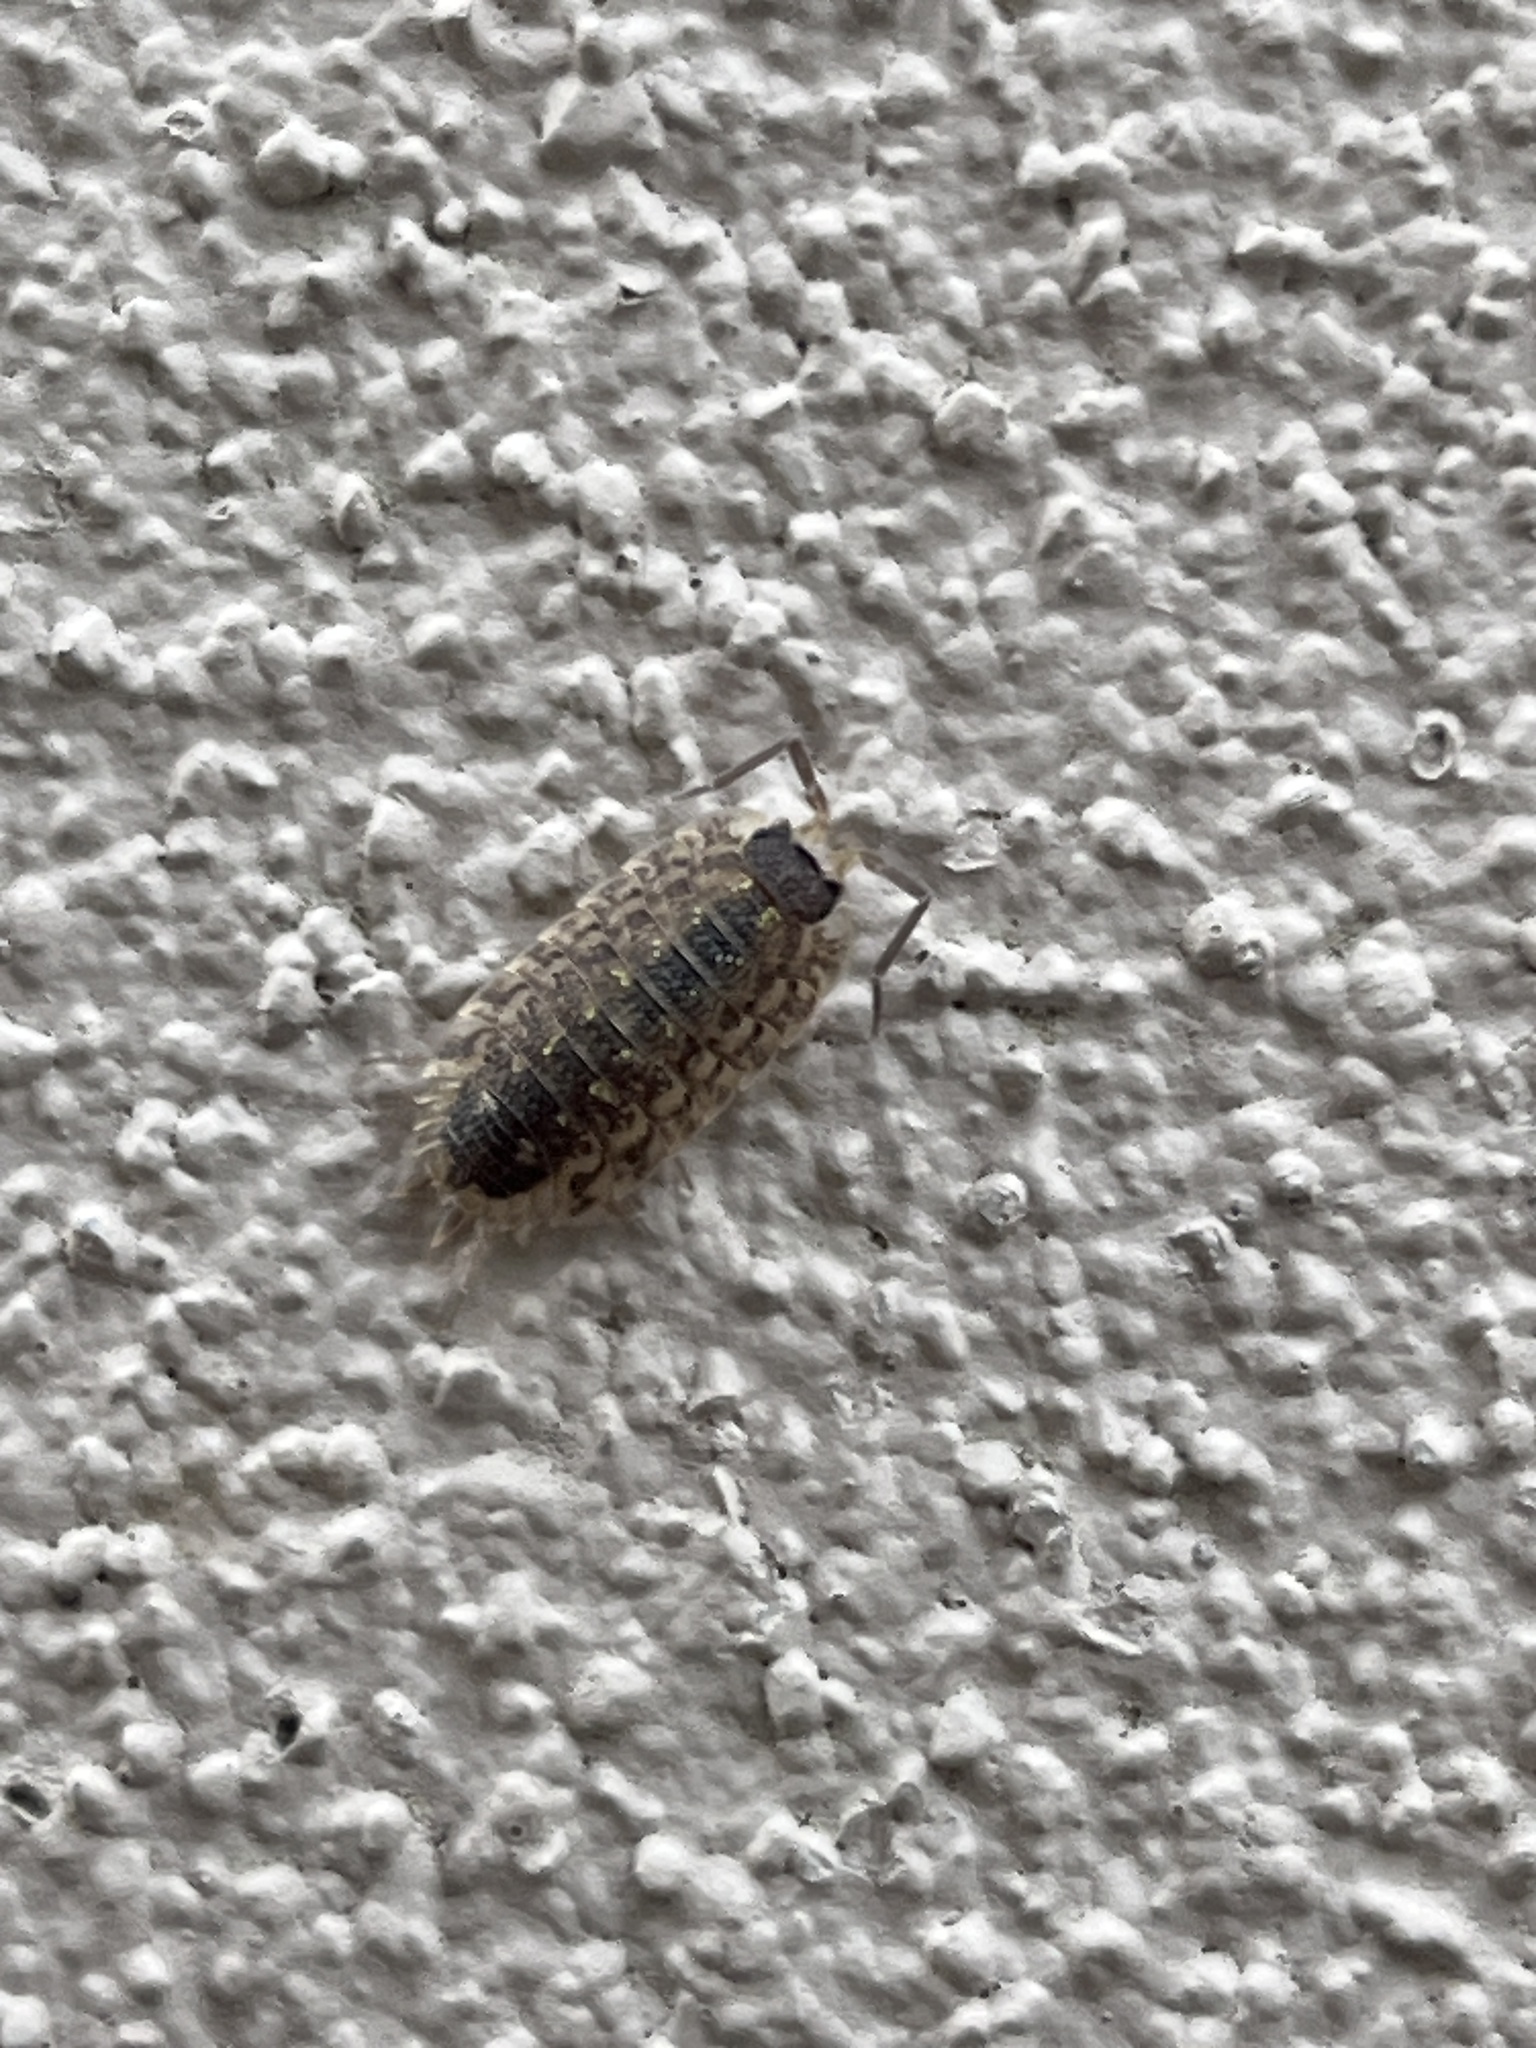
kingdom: Animalia
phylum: Arthropoda
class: Malacostraca
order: Isopoda
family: Porcellionidae
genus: Porcellio
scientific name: Porcellio spinicornis
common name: Painted woodlouse
